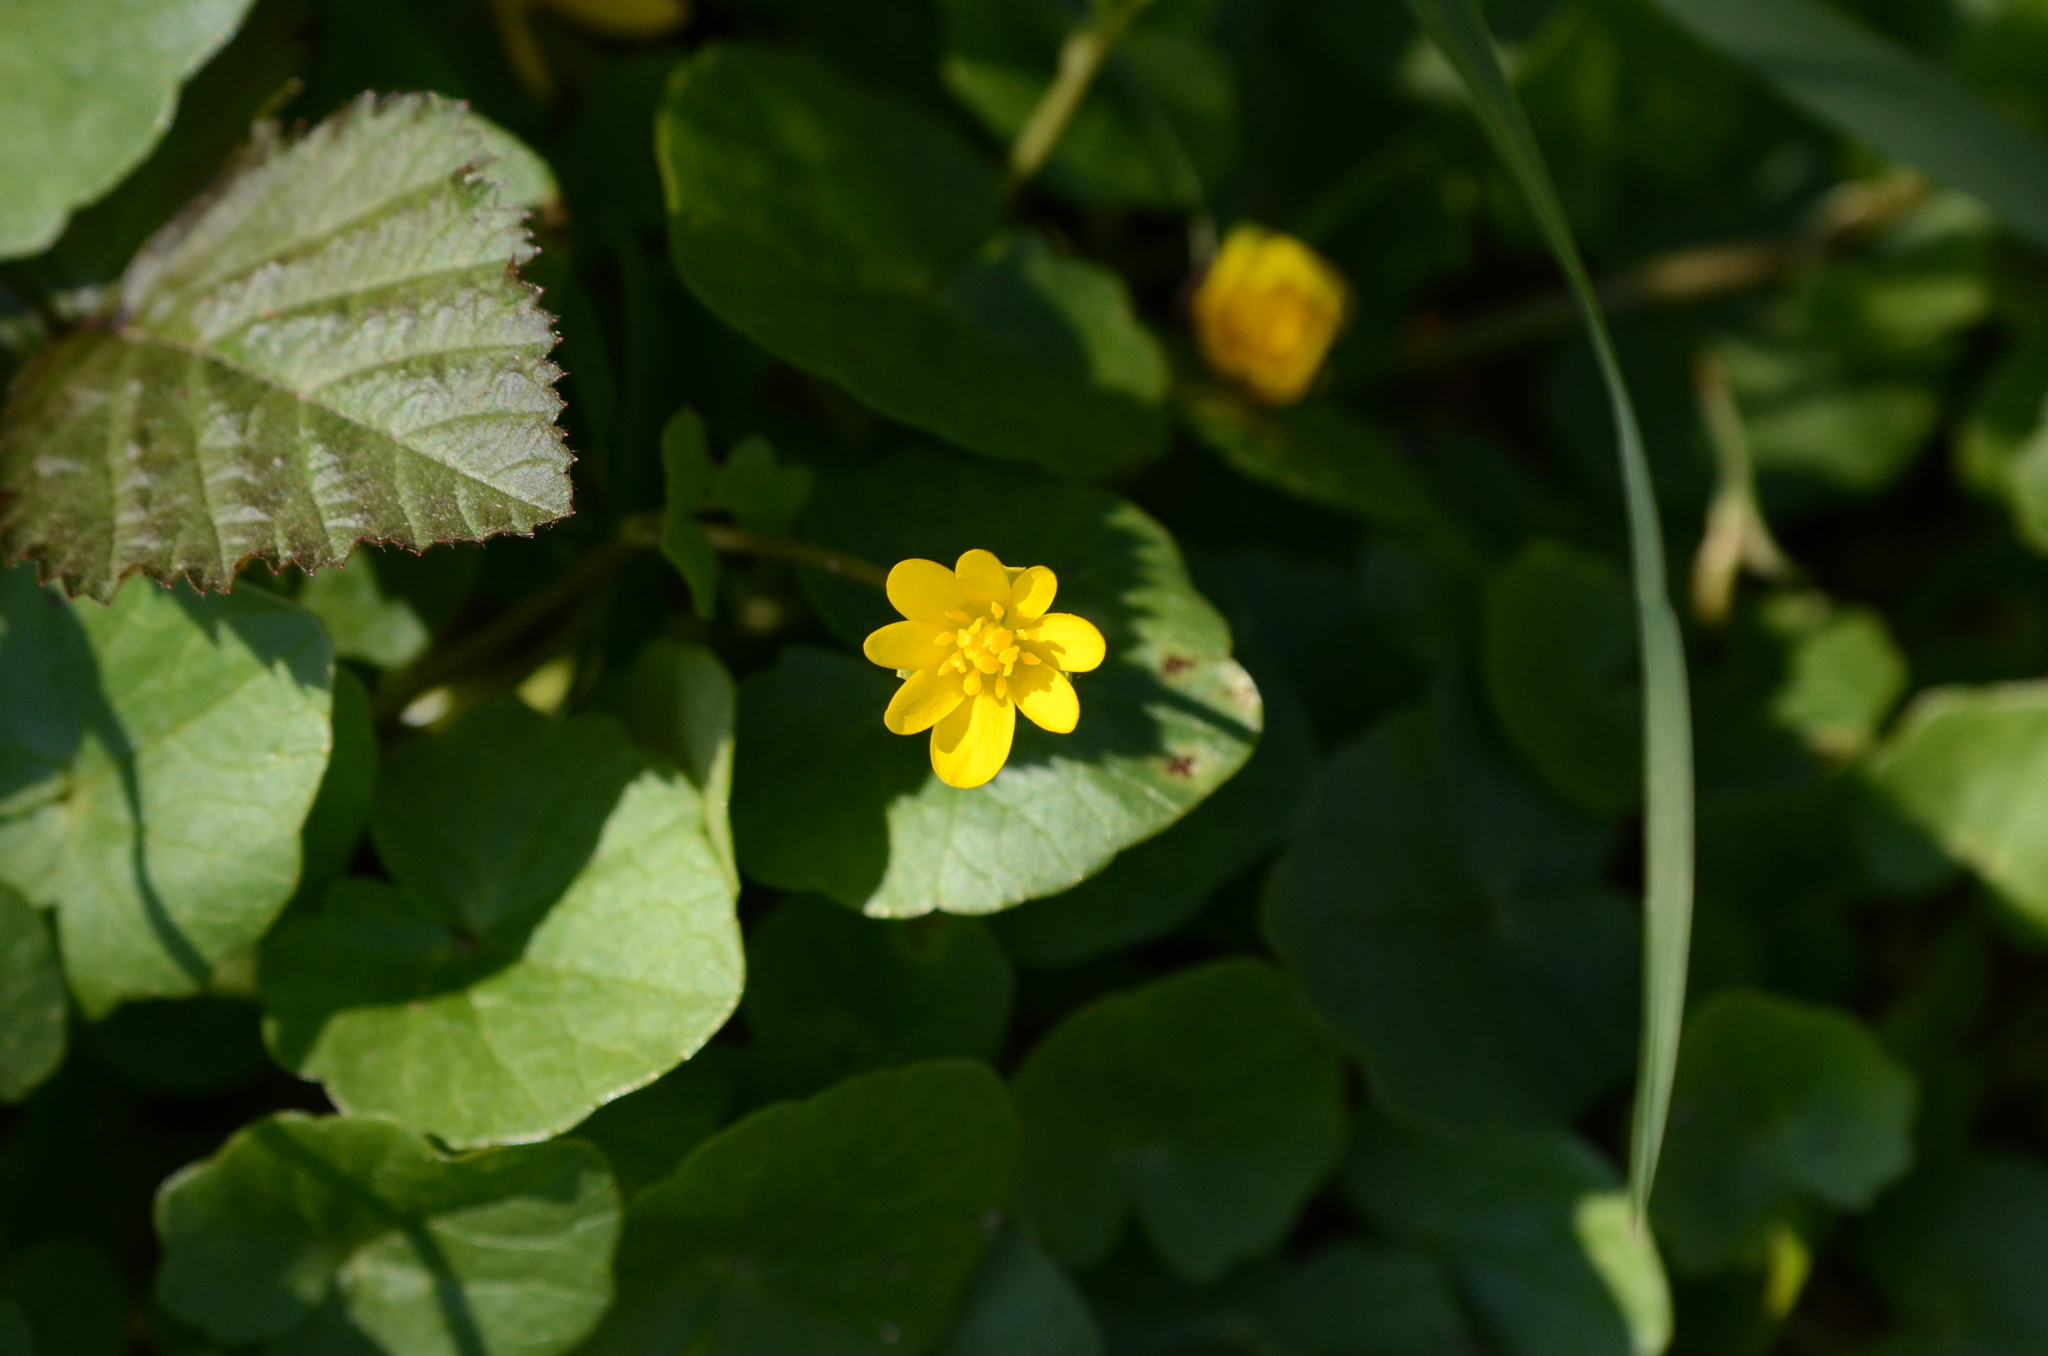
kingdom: Plantae
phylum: Tracheophyta
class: Magnoliopsida
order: Ranunculales
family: Ranunculaceae
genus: Ficaria
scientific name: Ficaria verna
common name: Lesser celandine
